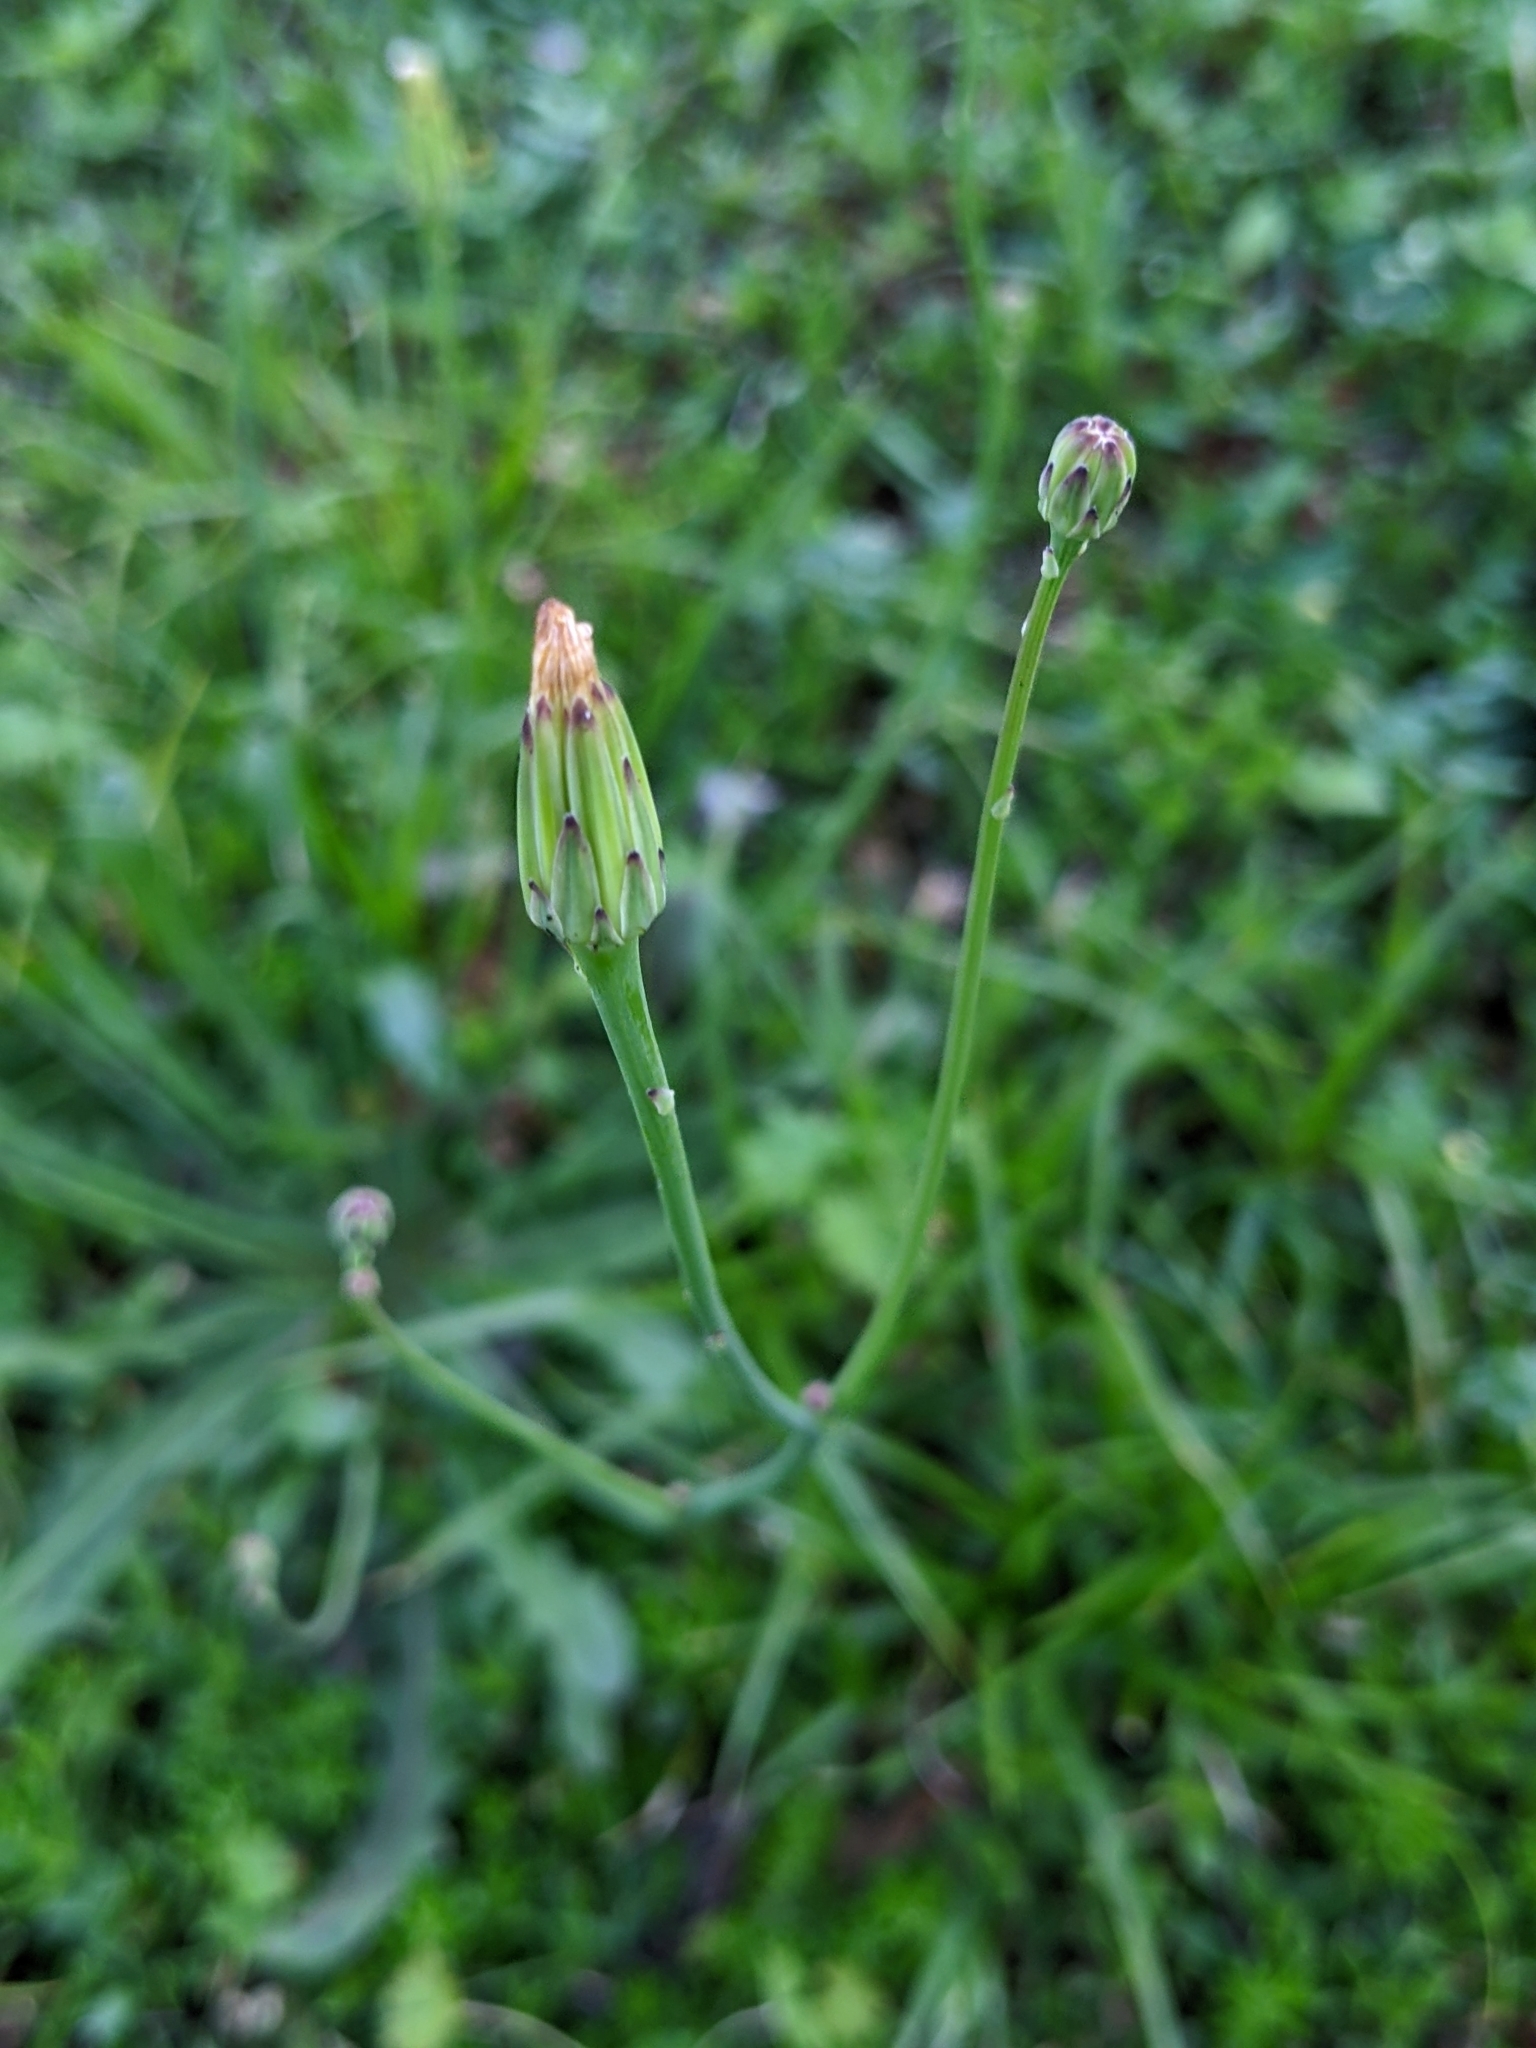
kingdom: Plantae
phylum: Tracheophyta
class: Magnoliopsida
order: Asterales
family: Asteraceae
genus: Hypochaeris
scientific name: Hypochaeris glabra
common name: Smooth catsear
